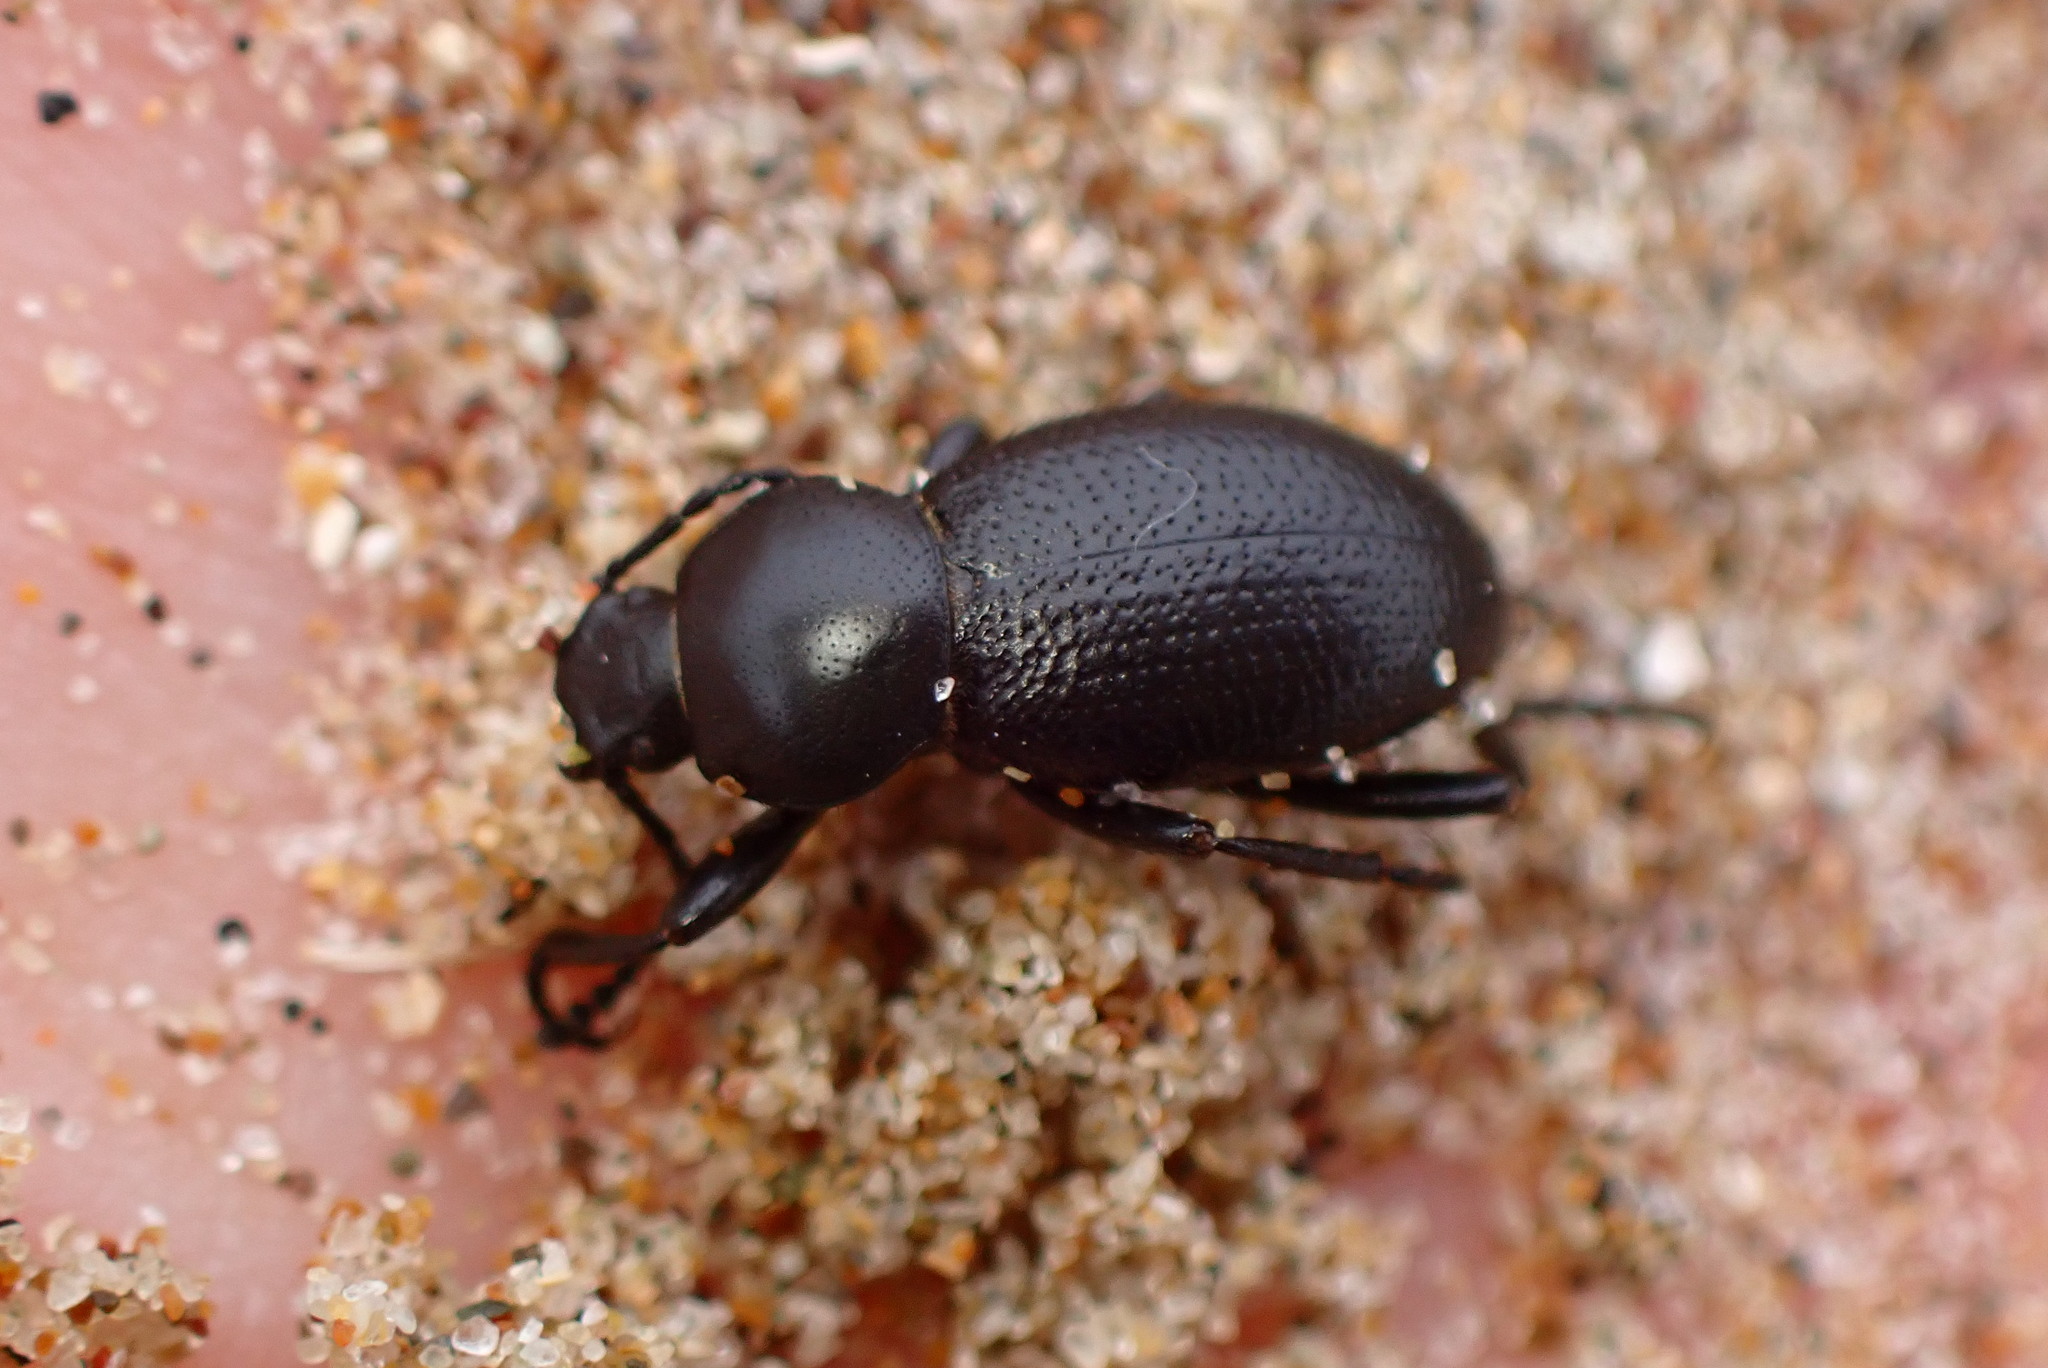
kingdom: Animalia
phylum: Arthropoda
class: Insecta
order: Coleoptera
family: Tenebrionidae
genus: Eleodes
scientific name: Eleodes clavicornis
